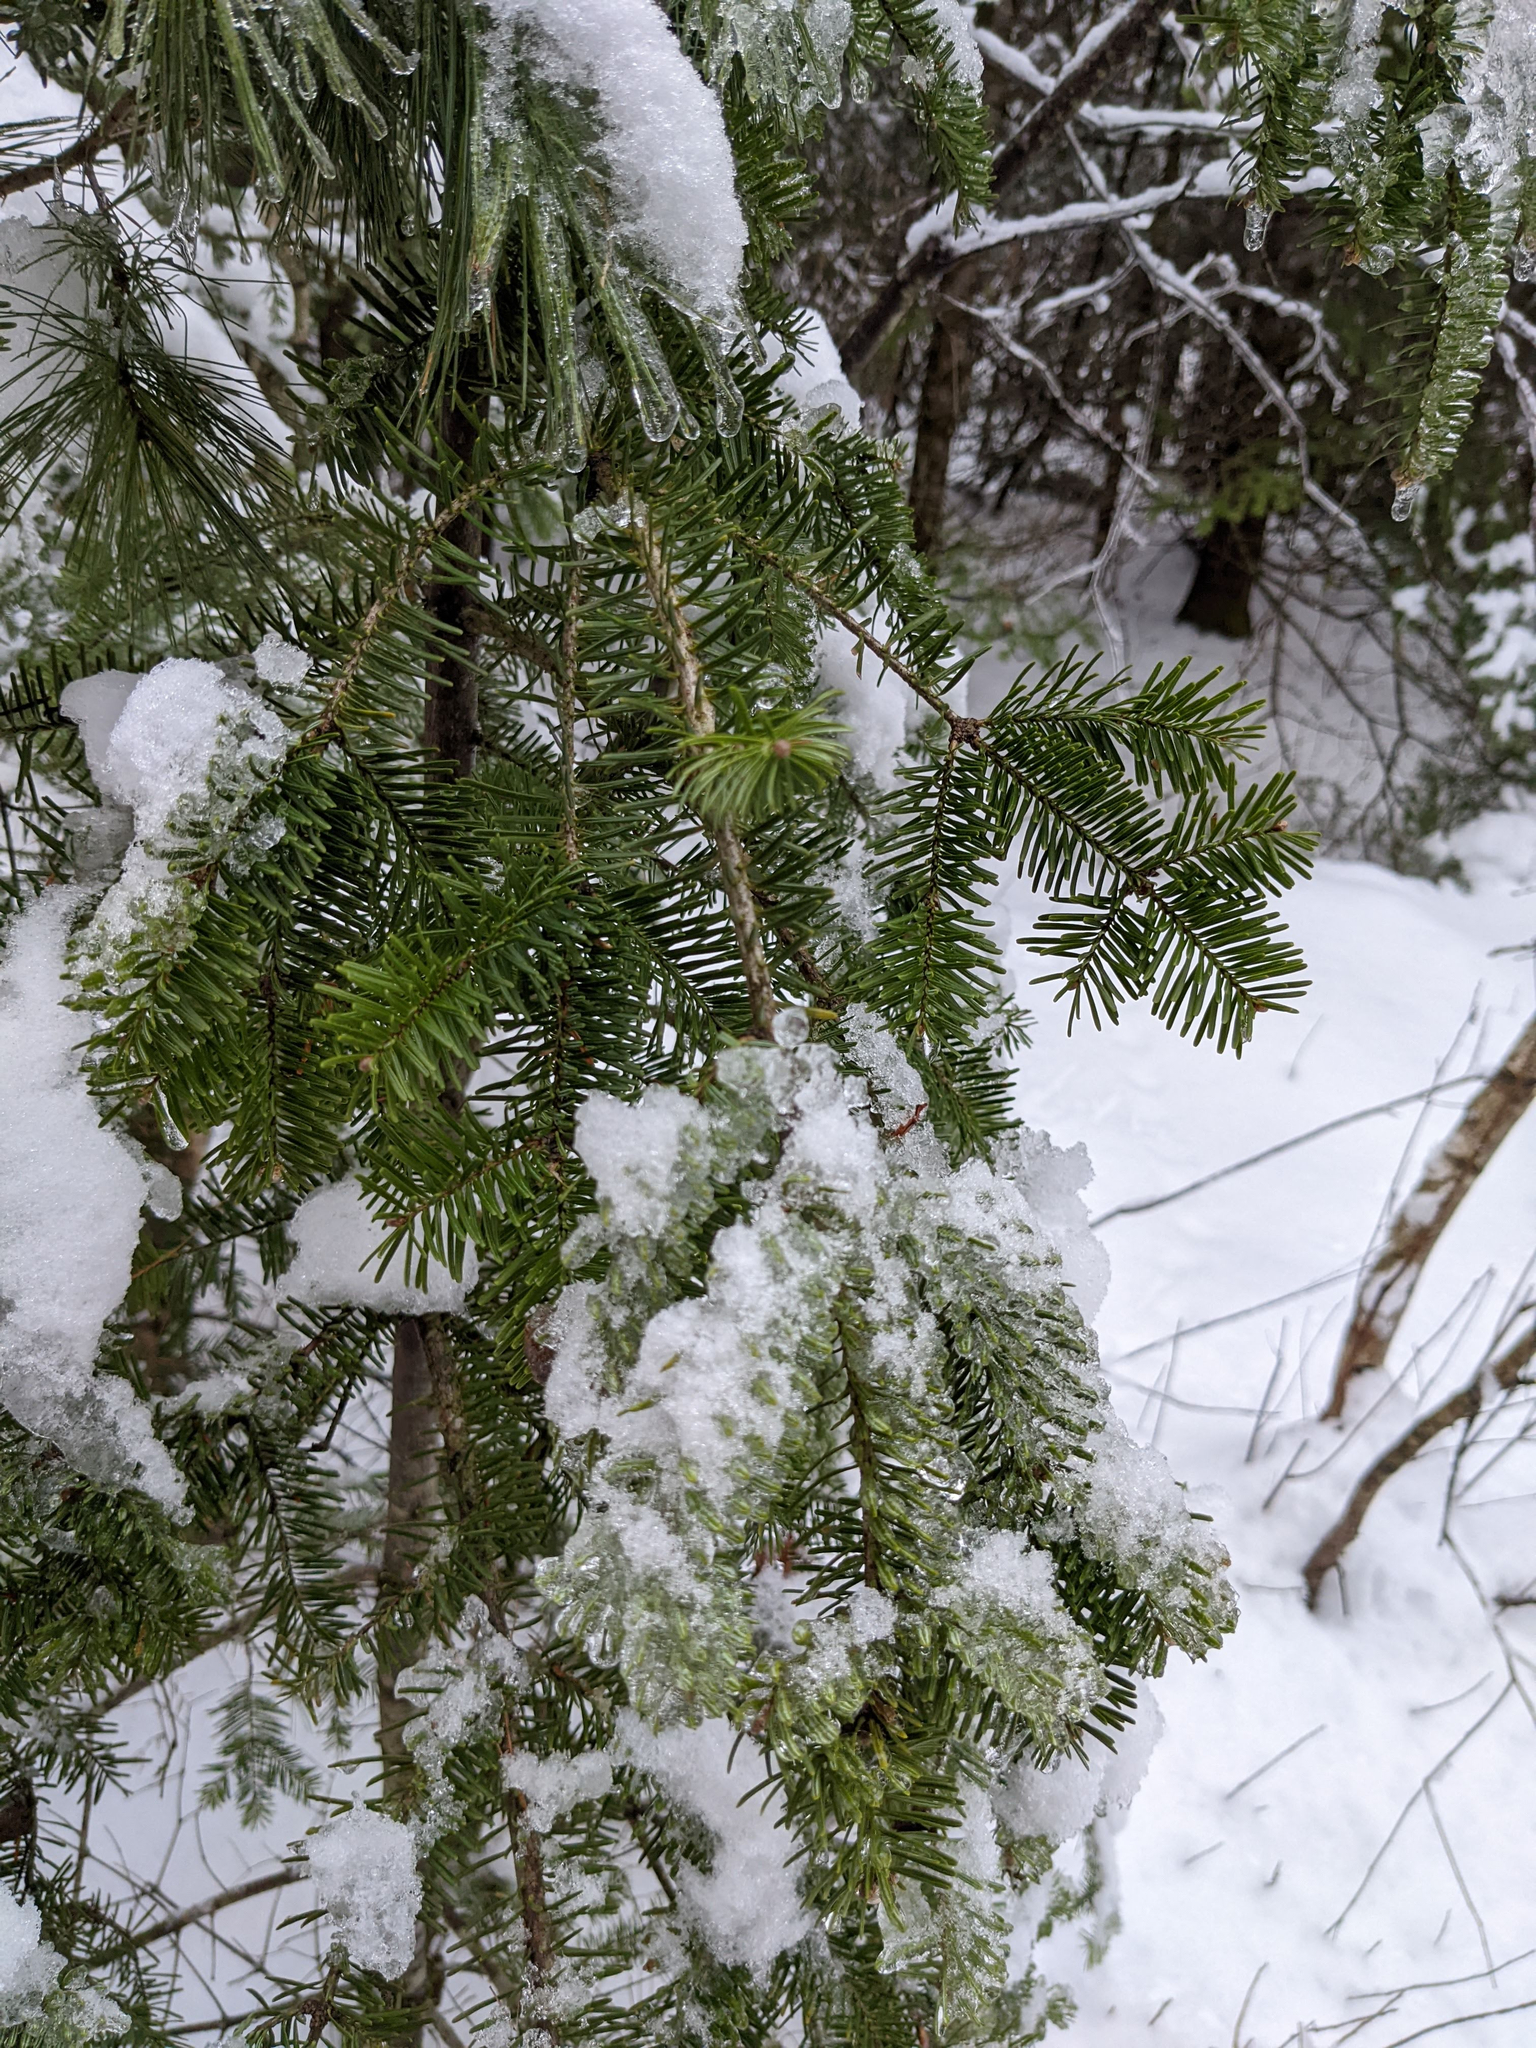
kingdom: Plantae
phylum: Tracheophyta
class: Pinopsida
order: Pinales
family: Pinaceae
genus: Abies
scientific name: Abies balsamea
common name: Balsam fir
